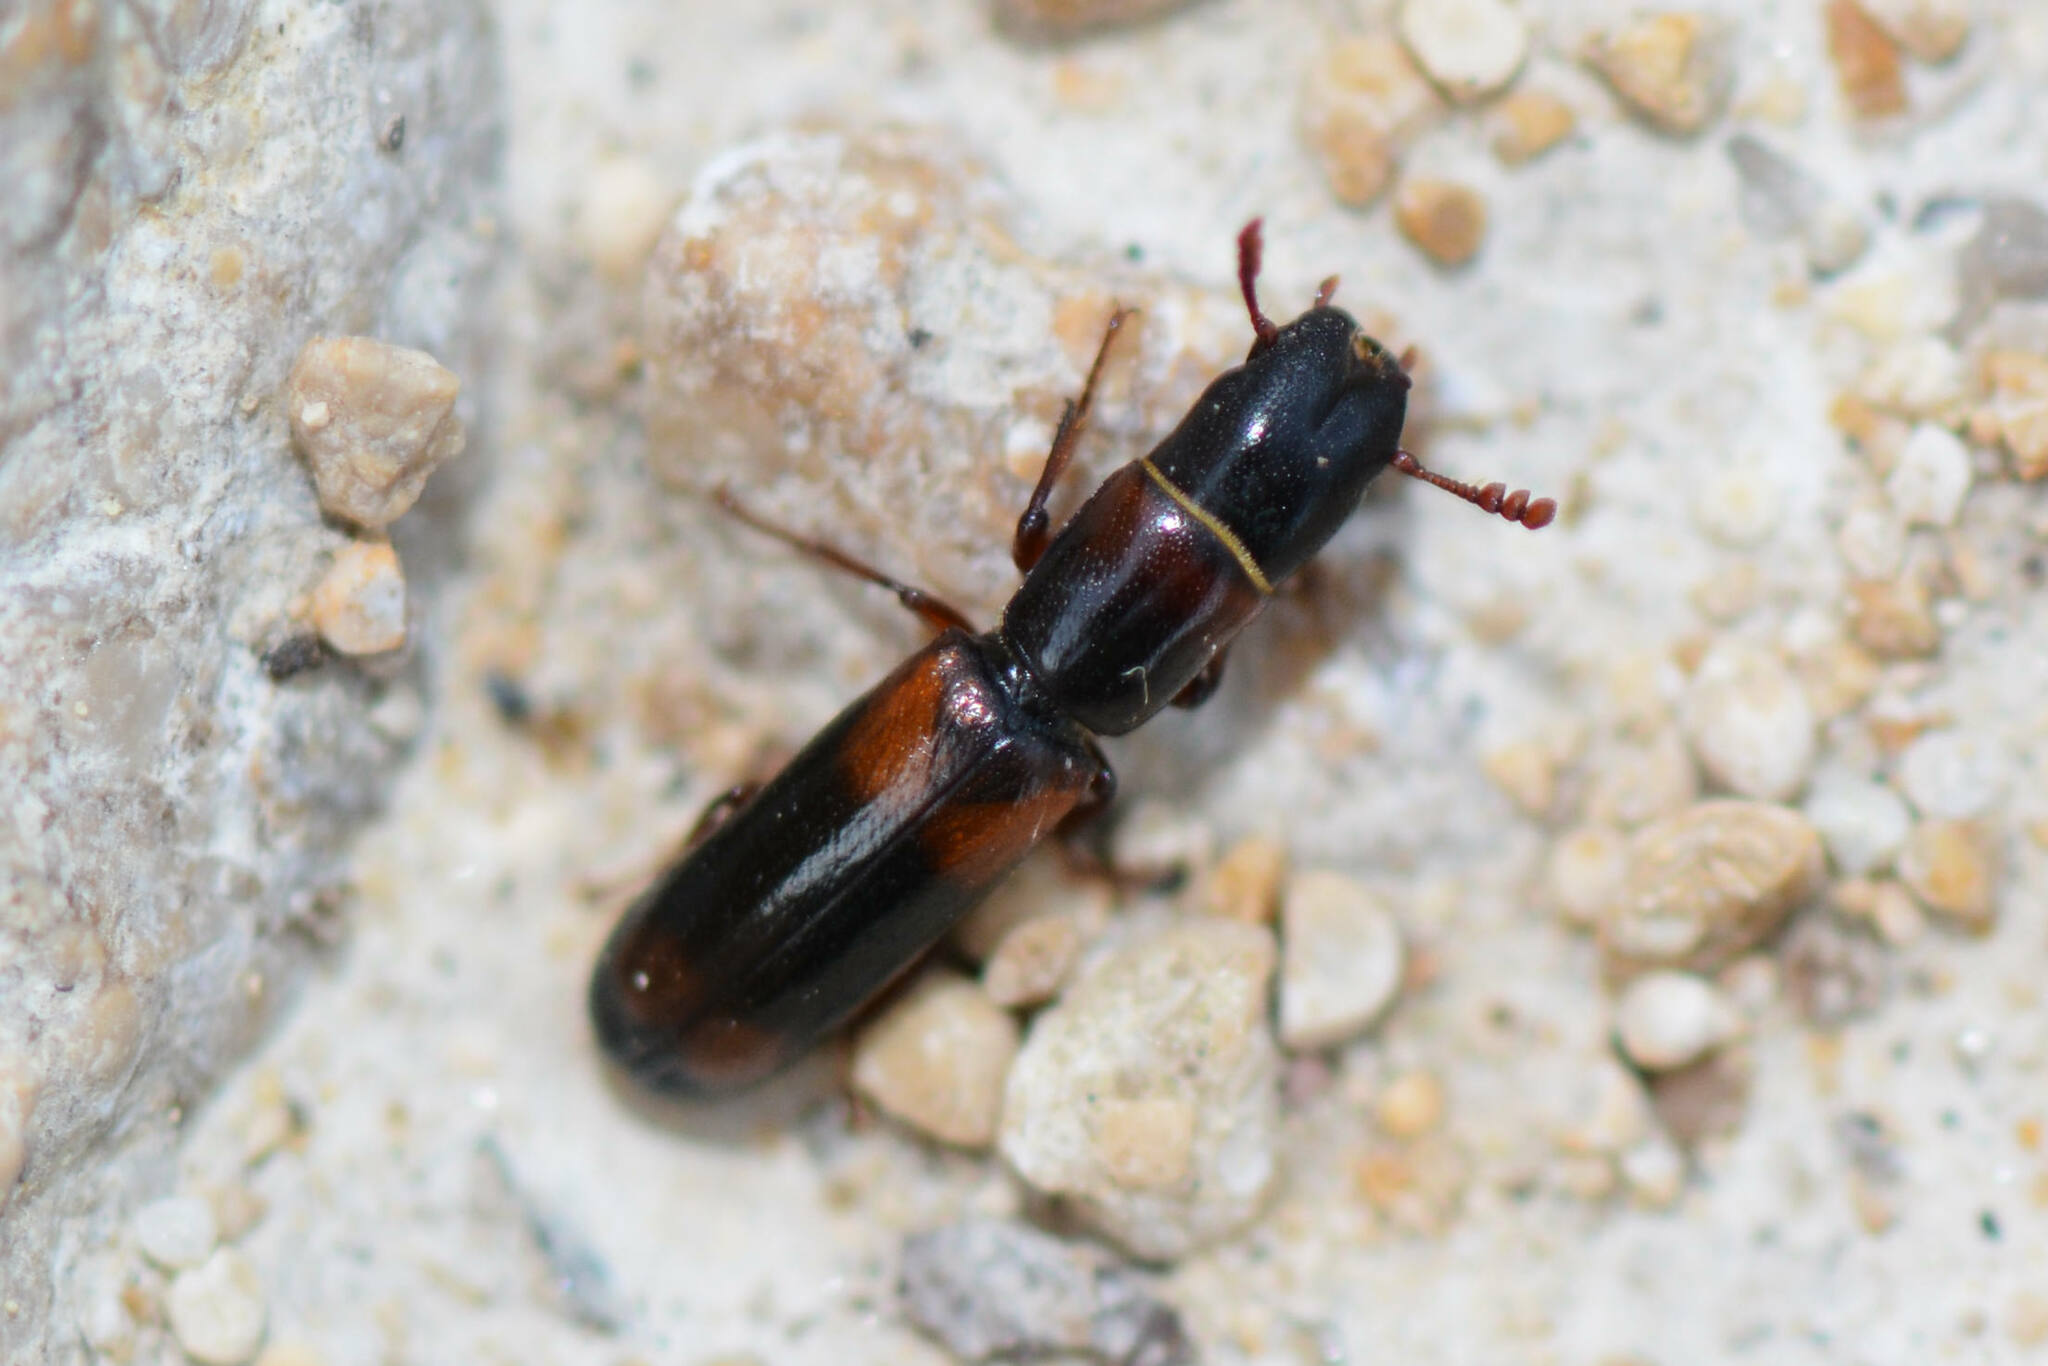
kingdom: Animalia
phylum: Arthropoda
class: Insecta
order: Coleoptera
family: Trogossitidae
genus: Nemozoma
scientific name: Nemozoma caucasicum
